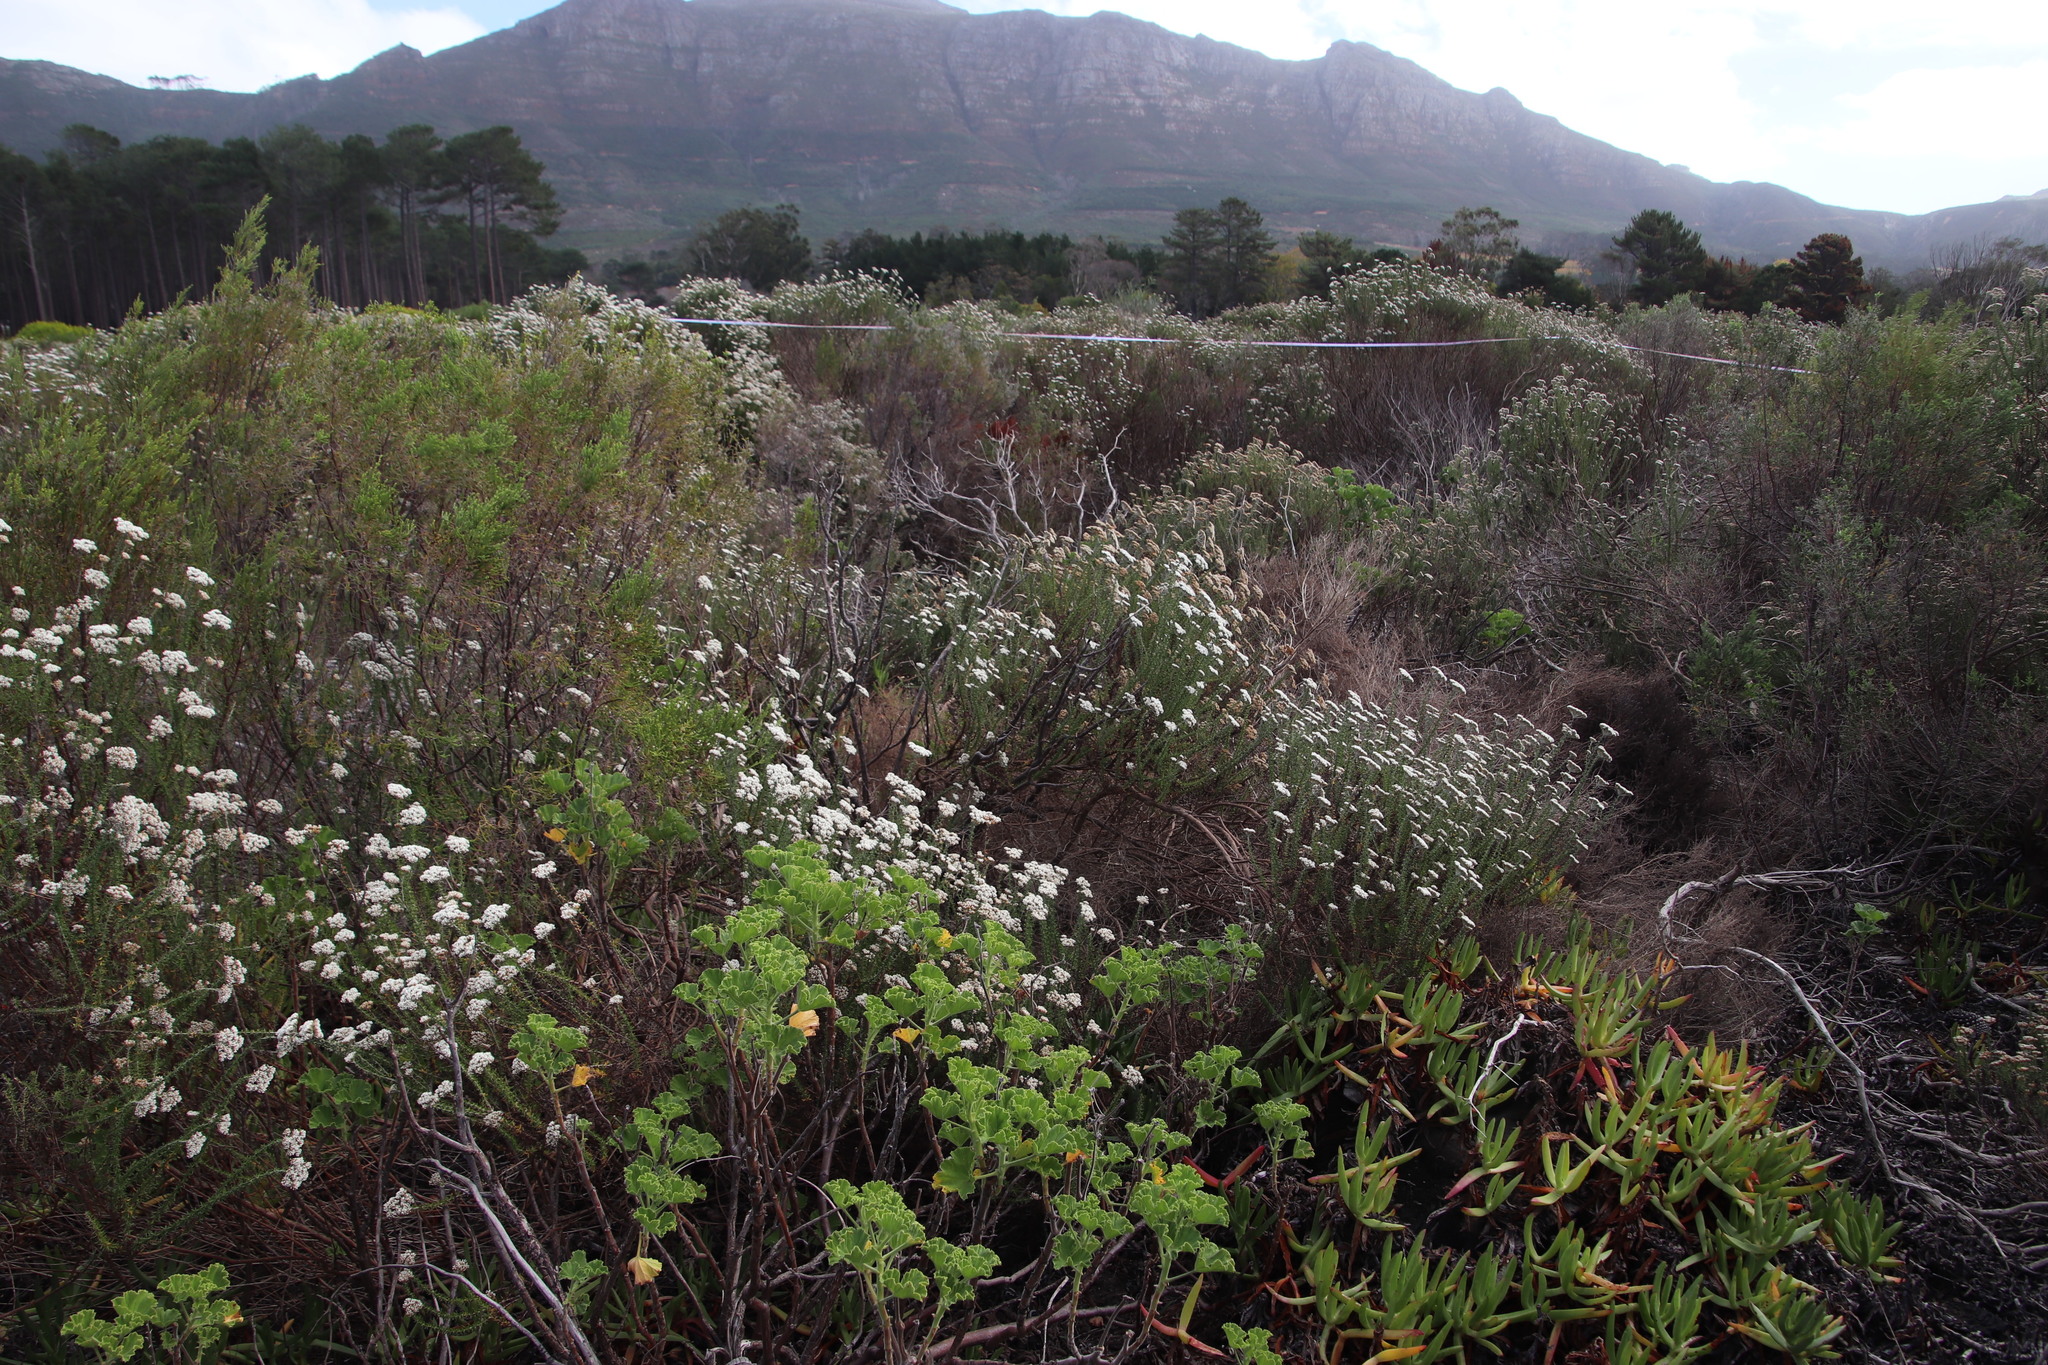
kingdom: Plantae
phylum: Tracheophyta
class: Magnoliopsida
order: Asterales
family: Asteraceae
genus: Metalasia
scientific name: Metalasia densa
